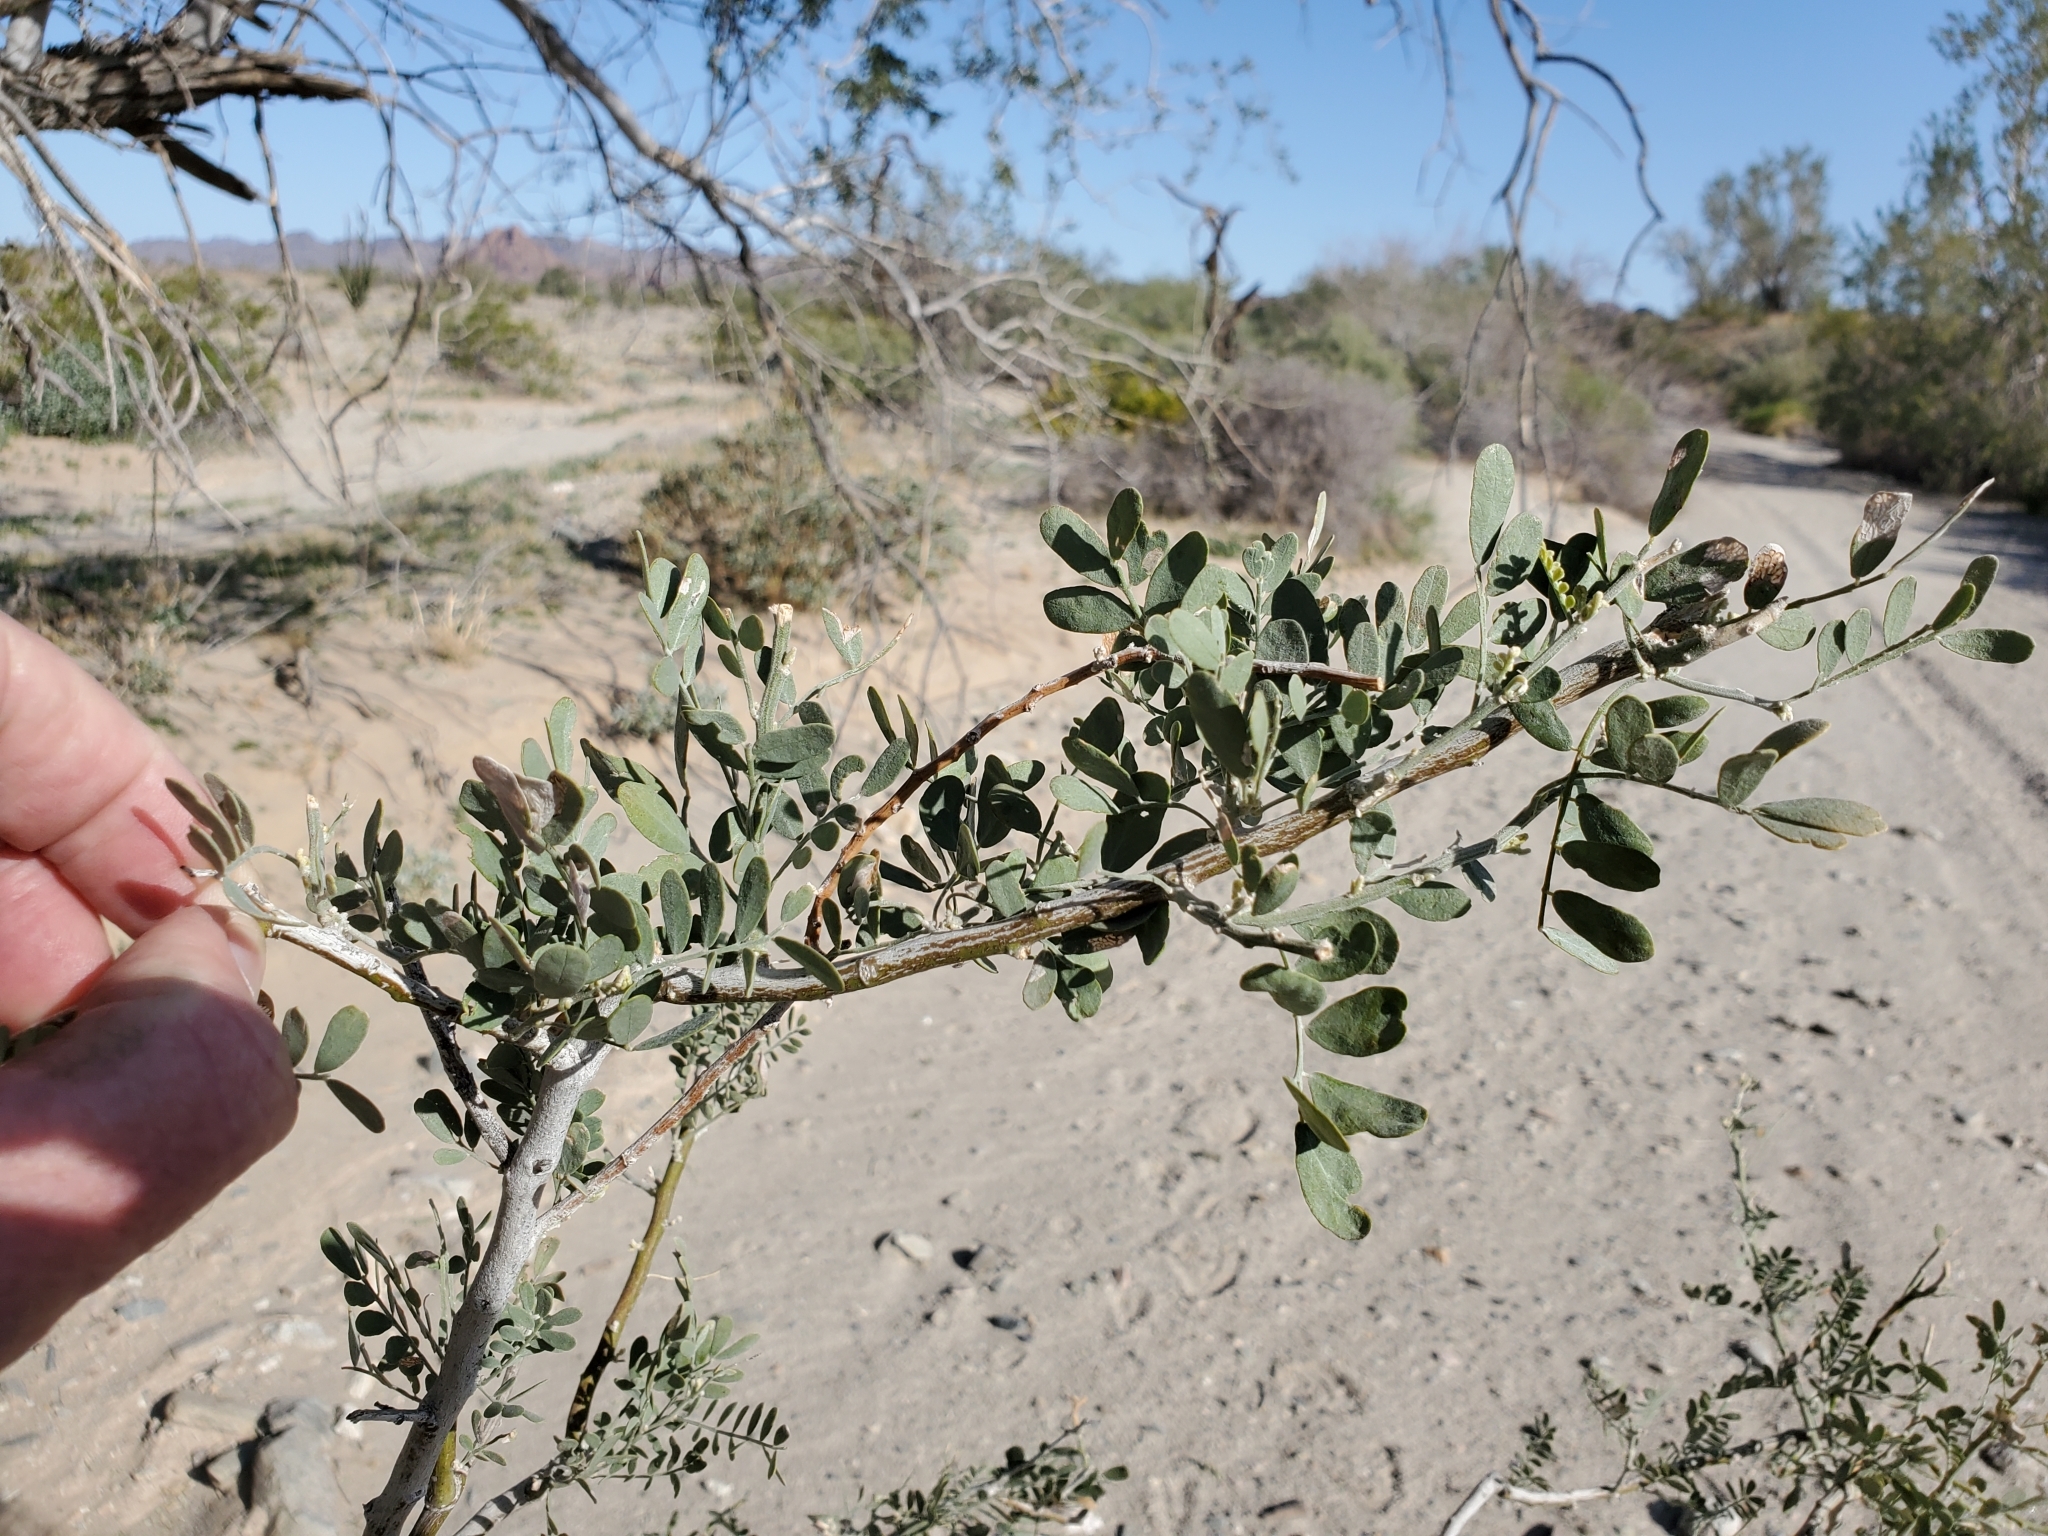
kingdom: Plantae
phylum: Tracheophyta
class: Magnoliopsida
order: Fabales
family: Fabaceae
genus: Olneya
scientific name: Olneya tesota
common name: Desert ironwood
